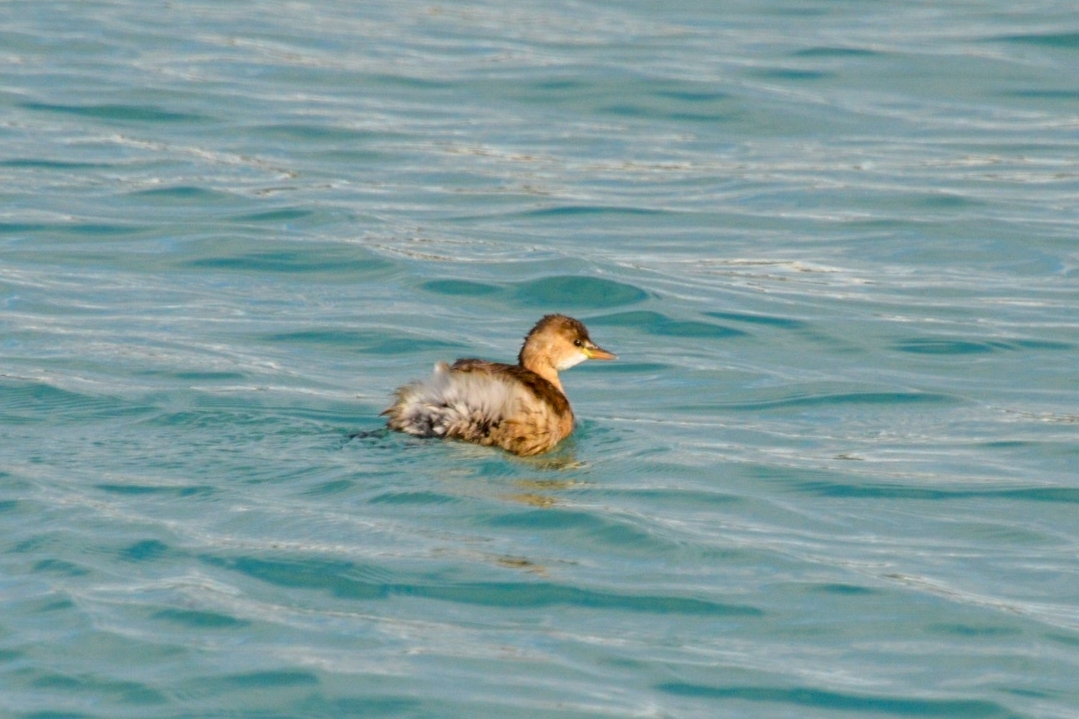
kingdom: Animalia
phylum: Chordata
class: Aves
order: Podicipediformes
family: Podicipedidae
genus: Tachybaptus
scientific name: Tachybaptus ruficollis
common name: Little grebe
